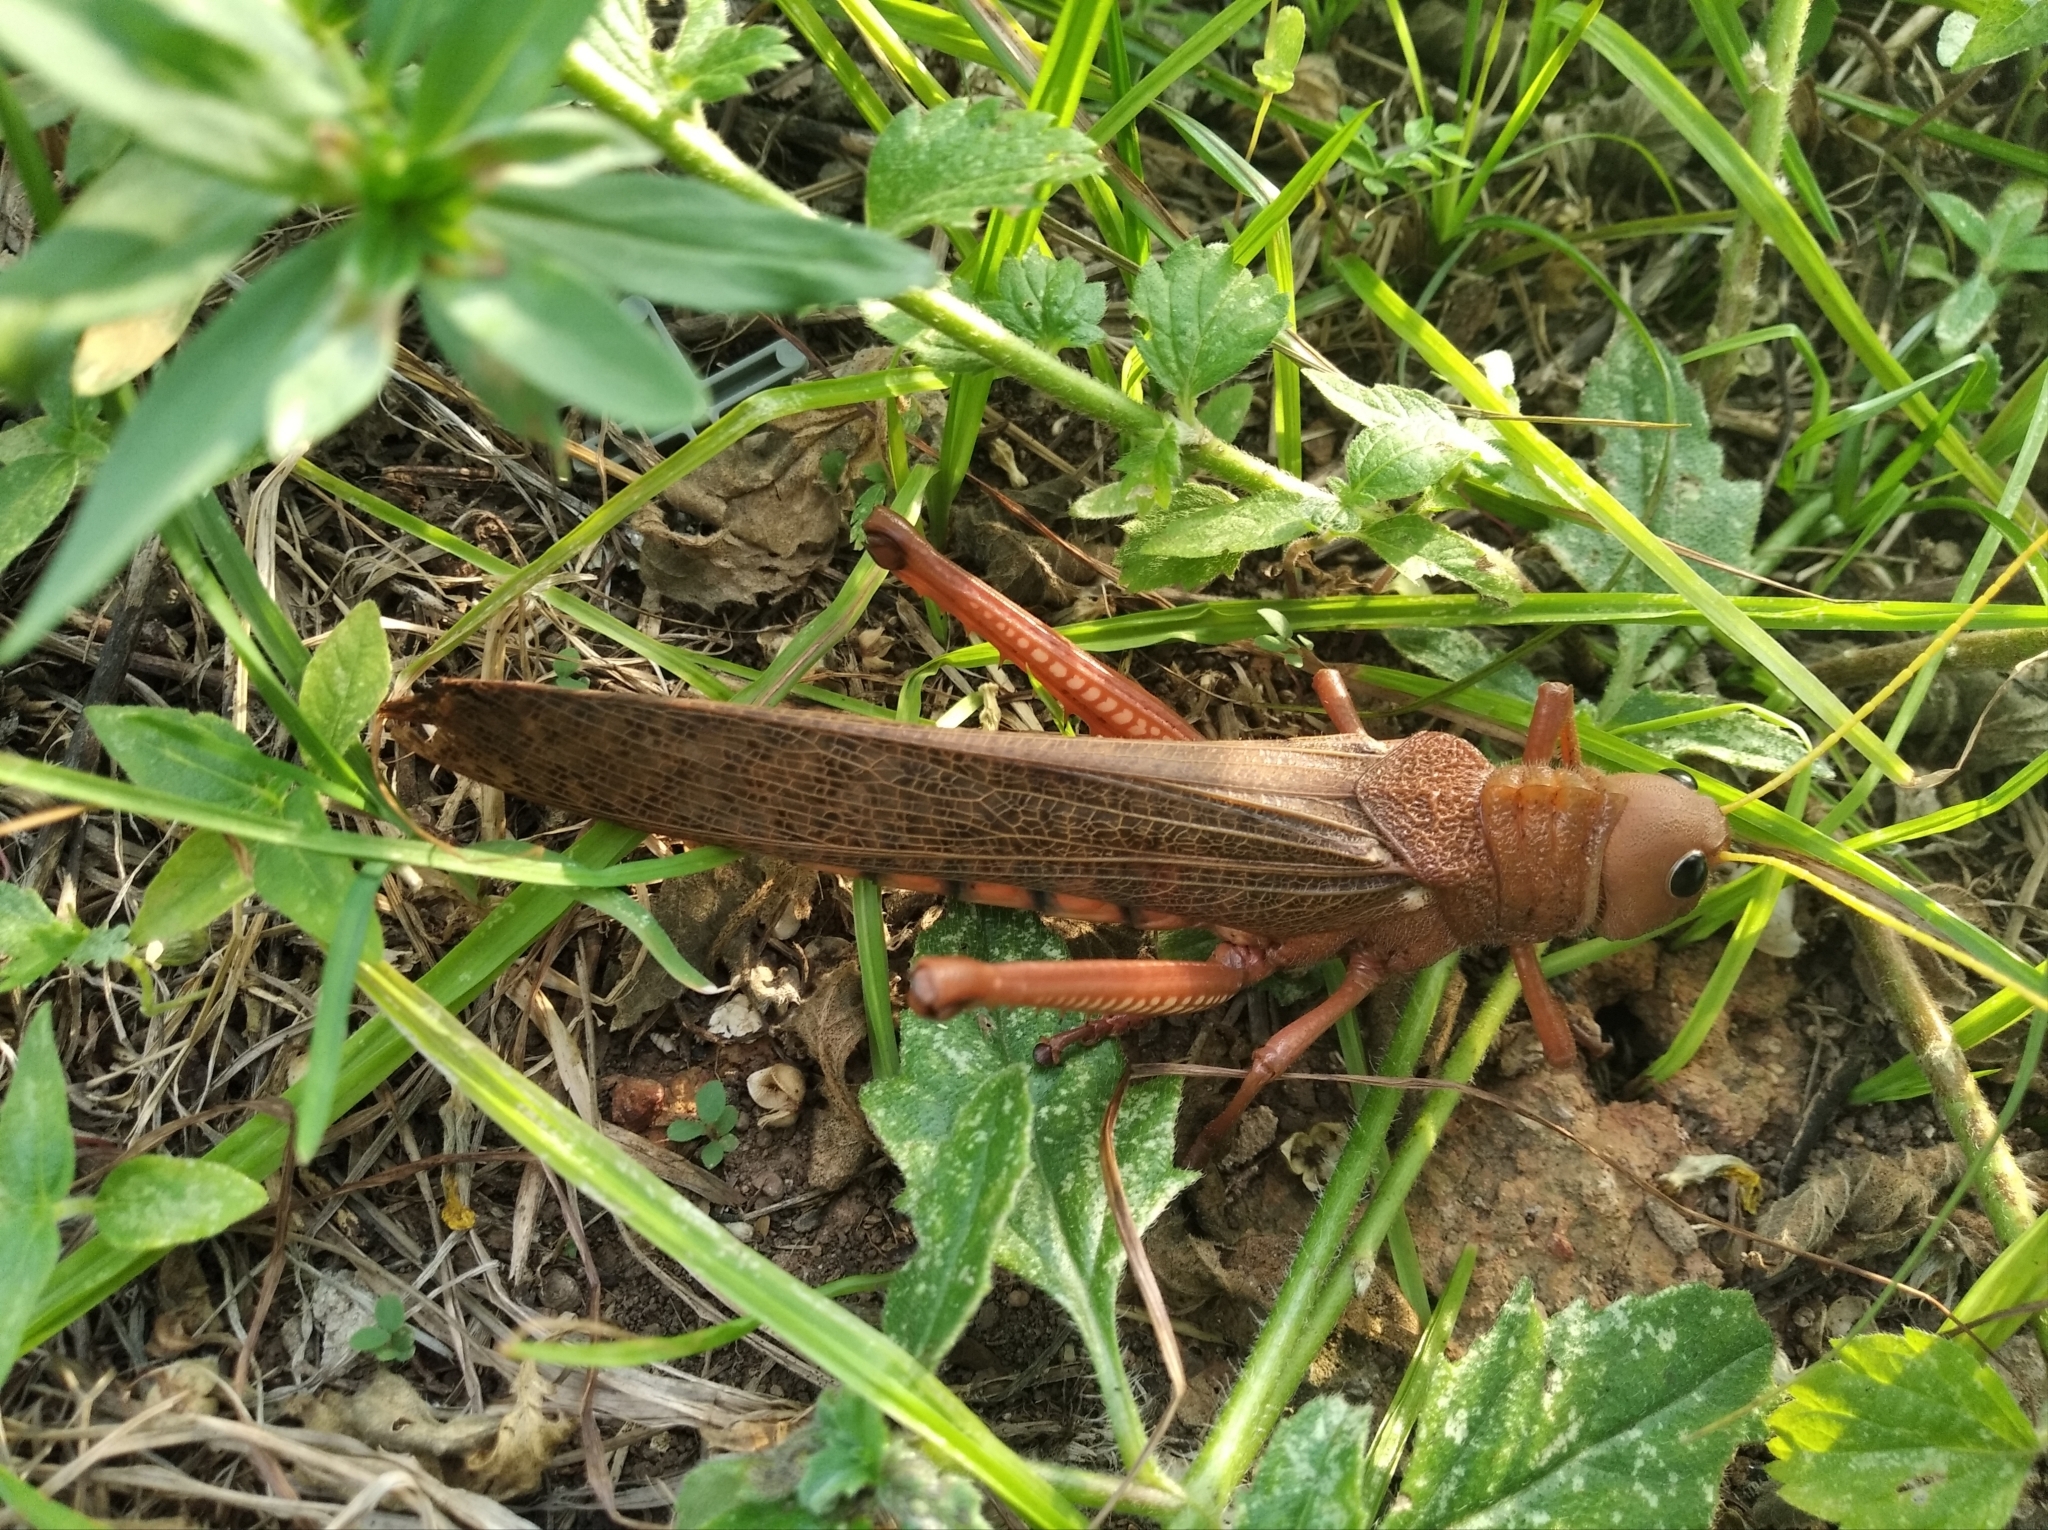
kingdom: Animalia
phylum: Arthropoda
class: Insecta
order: Orthoptera
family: Romaleidae
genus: Tropidacris
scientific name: Tropidacris collaris
